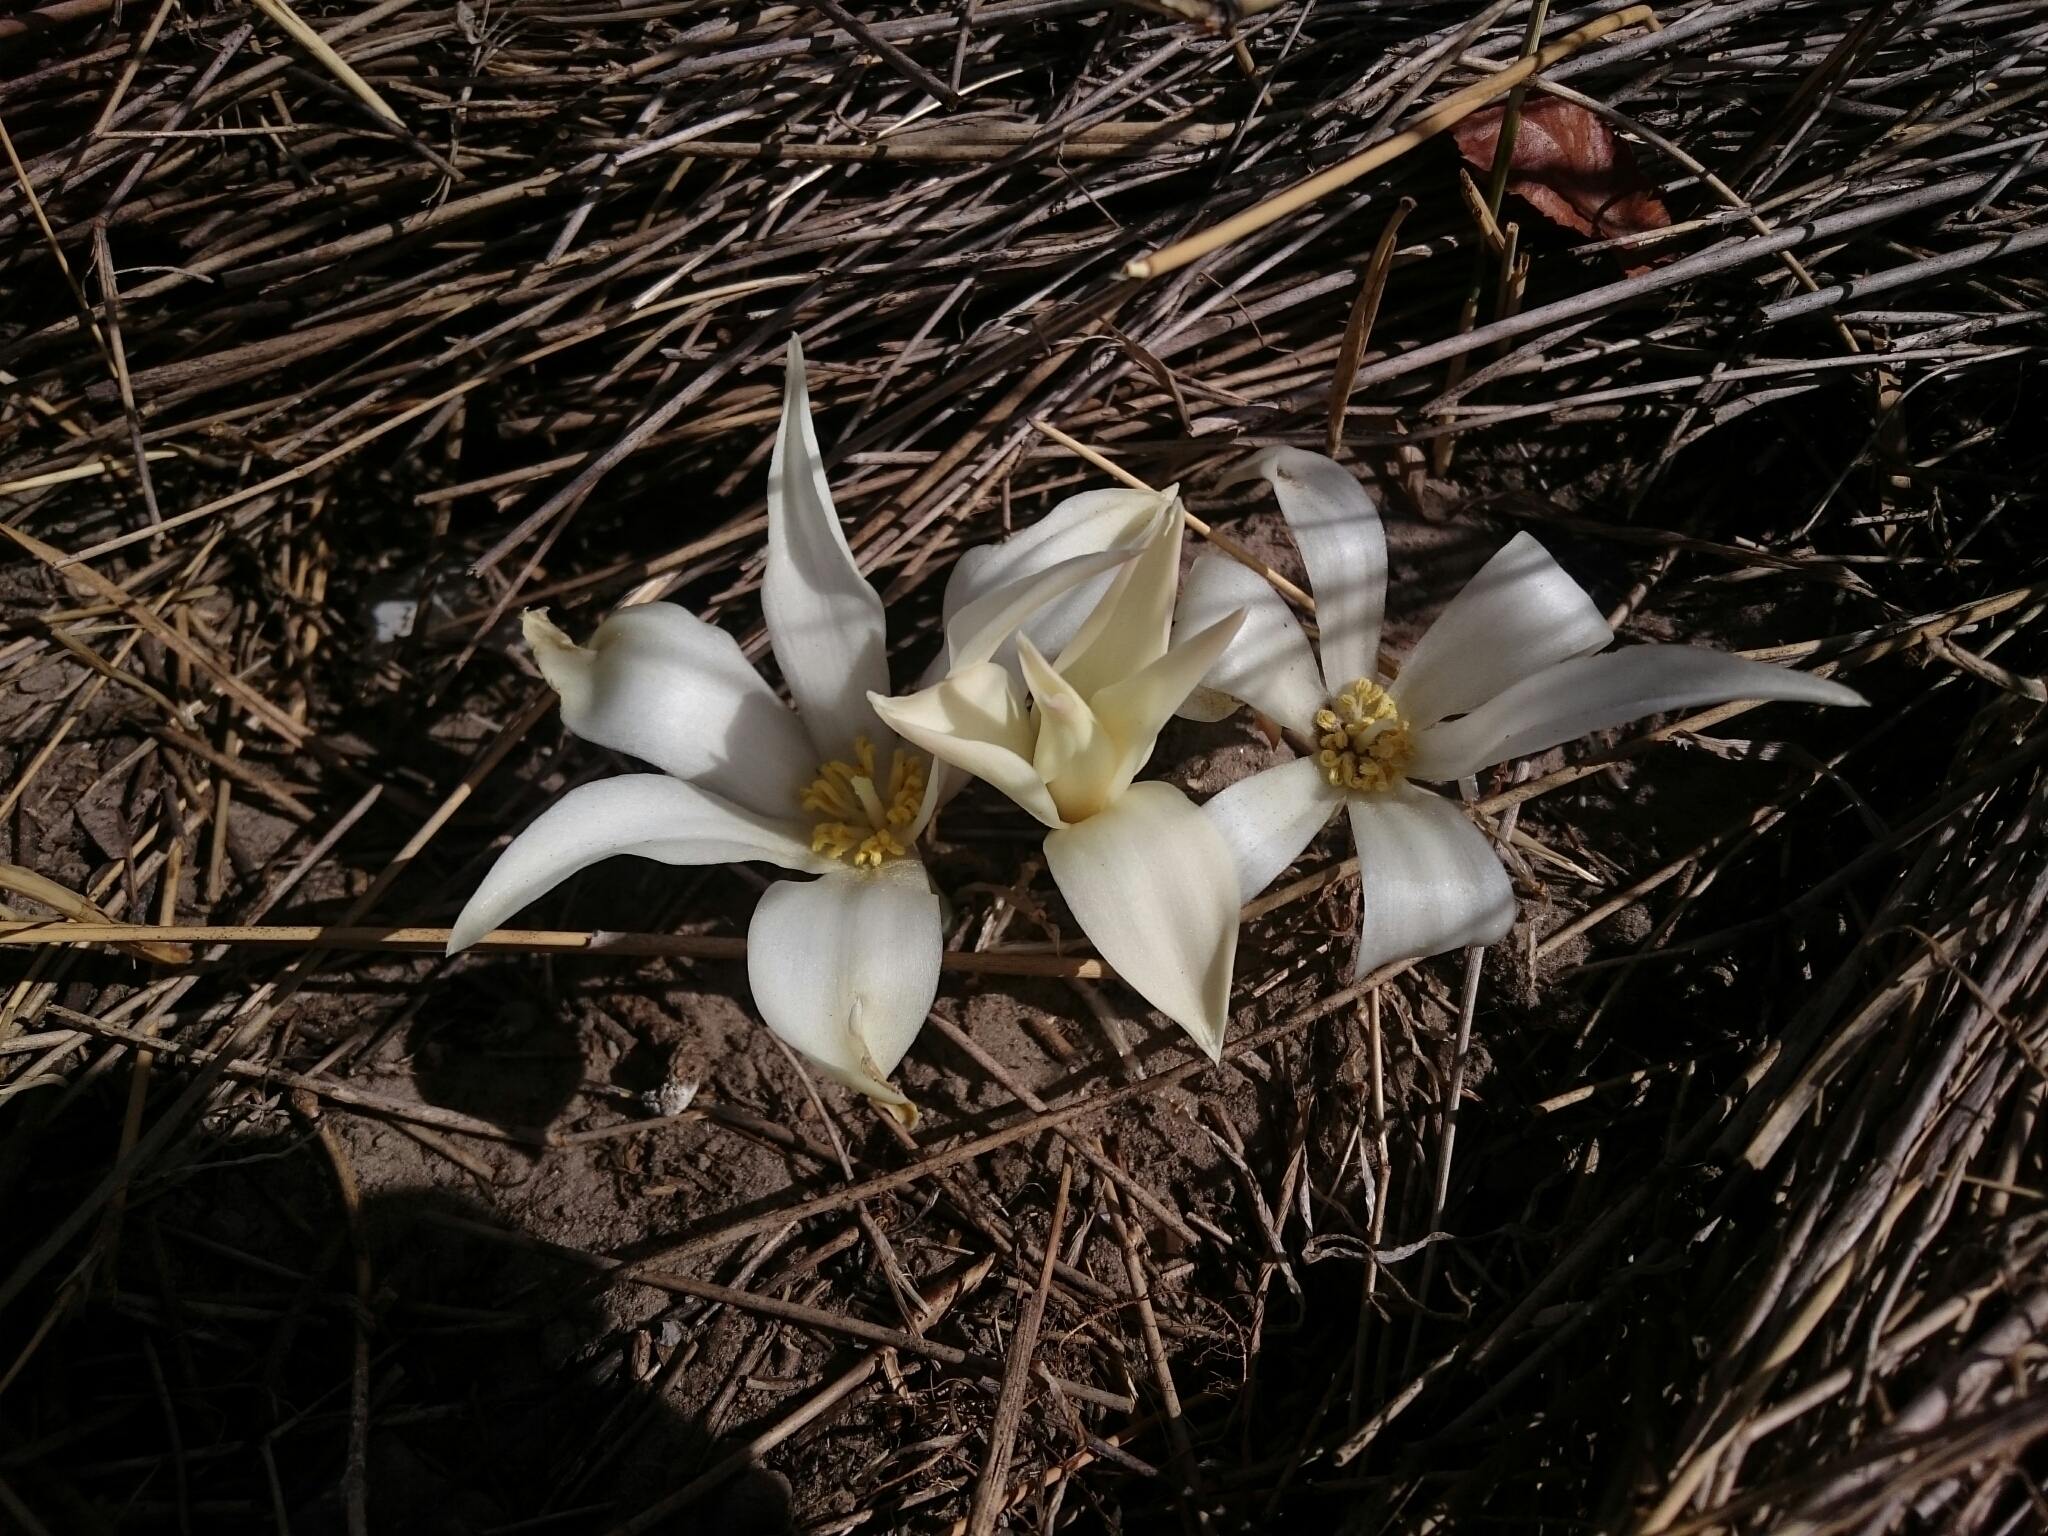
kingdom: Plantae
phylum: Tracheophyta
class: Liliopsida
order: Asparagales
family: Amaryllidaceae
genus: Gethyllis
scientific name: Gethyllis ciliaris
